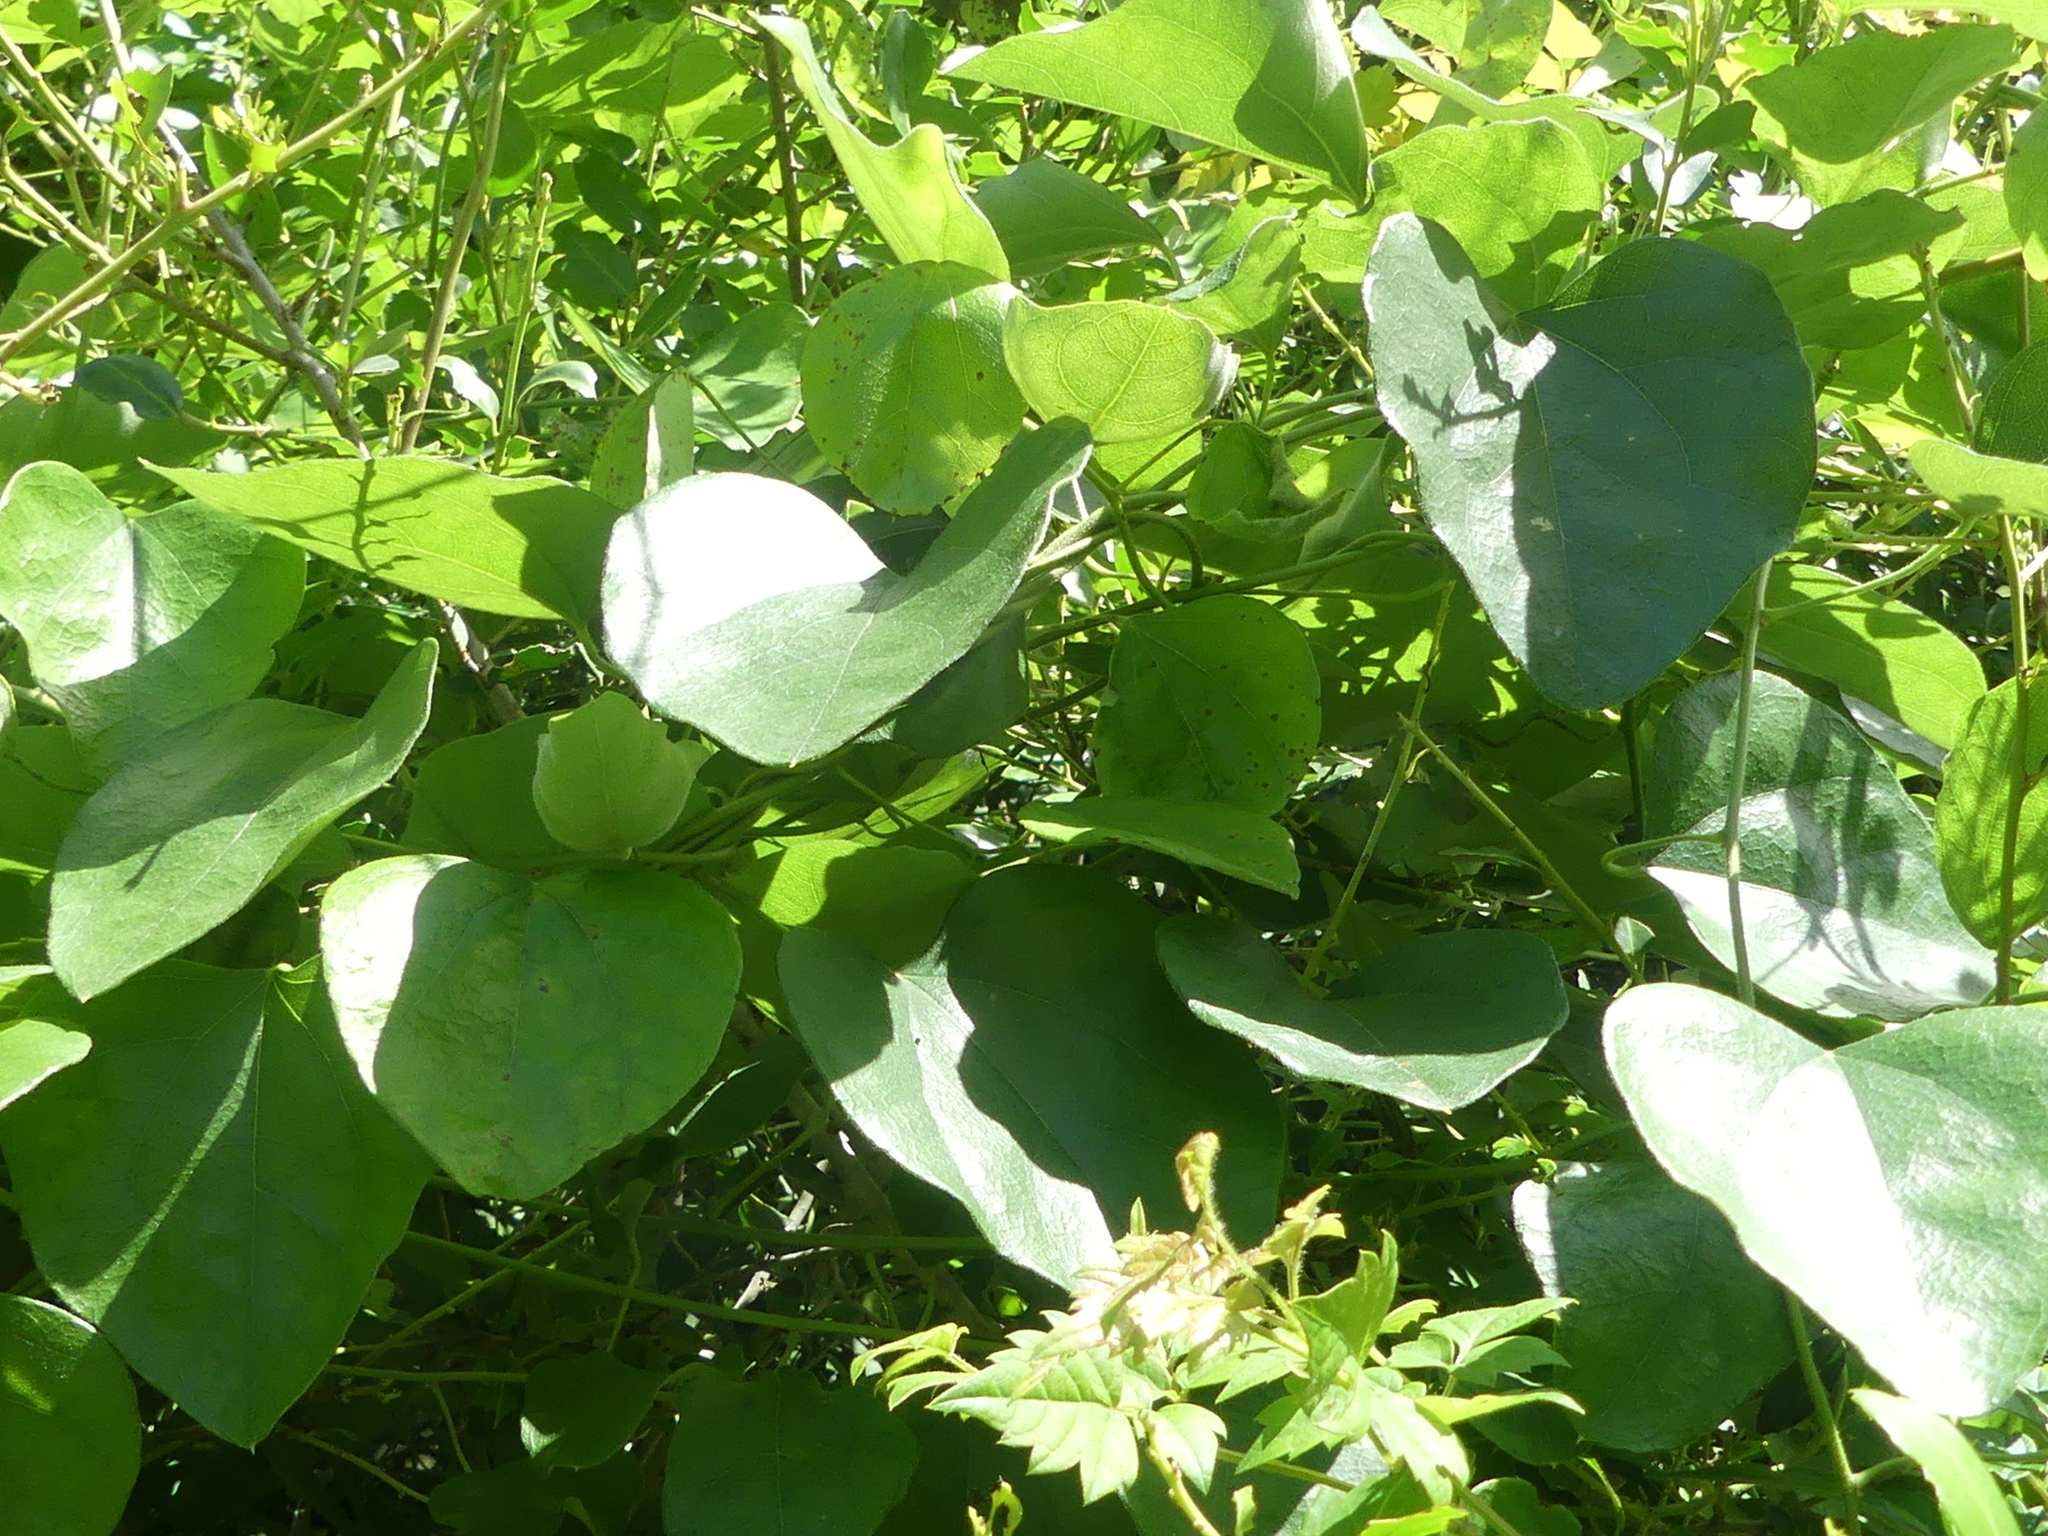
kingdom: Plantae
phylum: Tracheophyta
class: Magnoliopsida
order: Ranunculales
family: Menispermaceae
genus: Cocculus
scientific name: Cocculus carolinus
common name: Carolina moonseed
